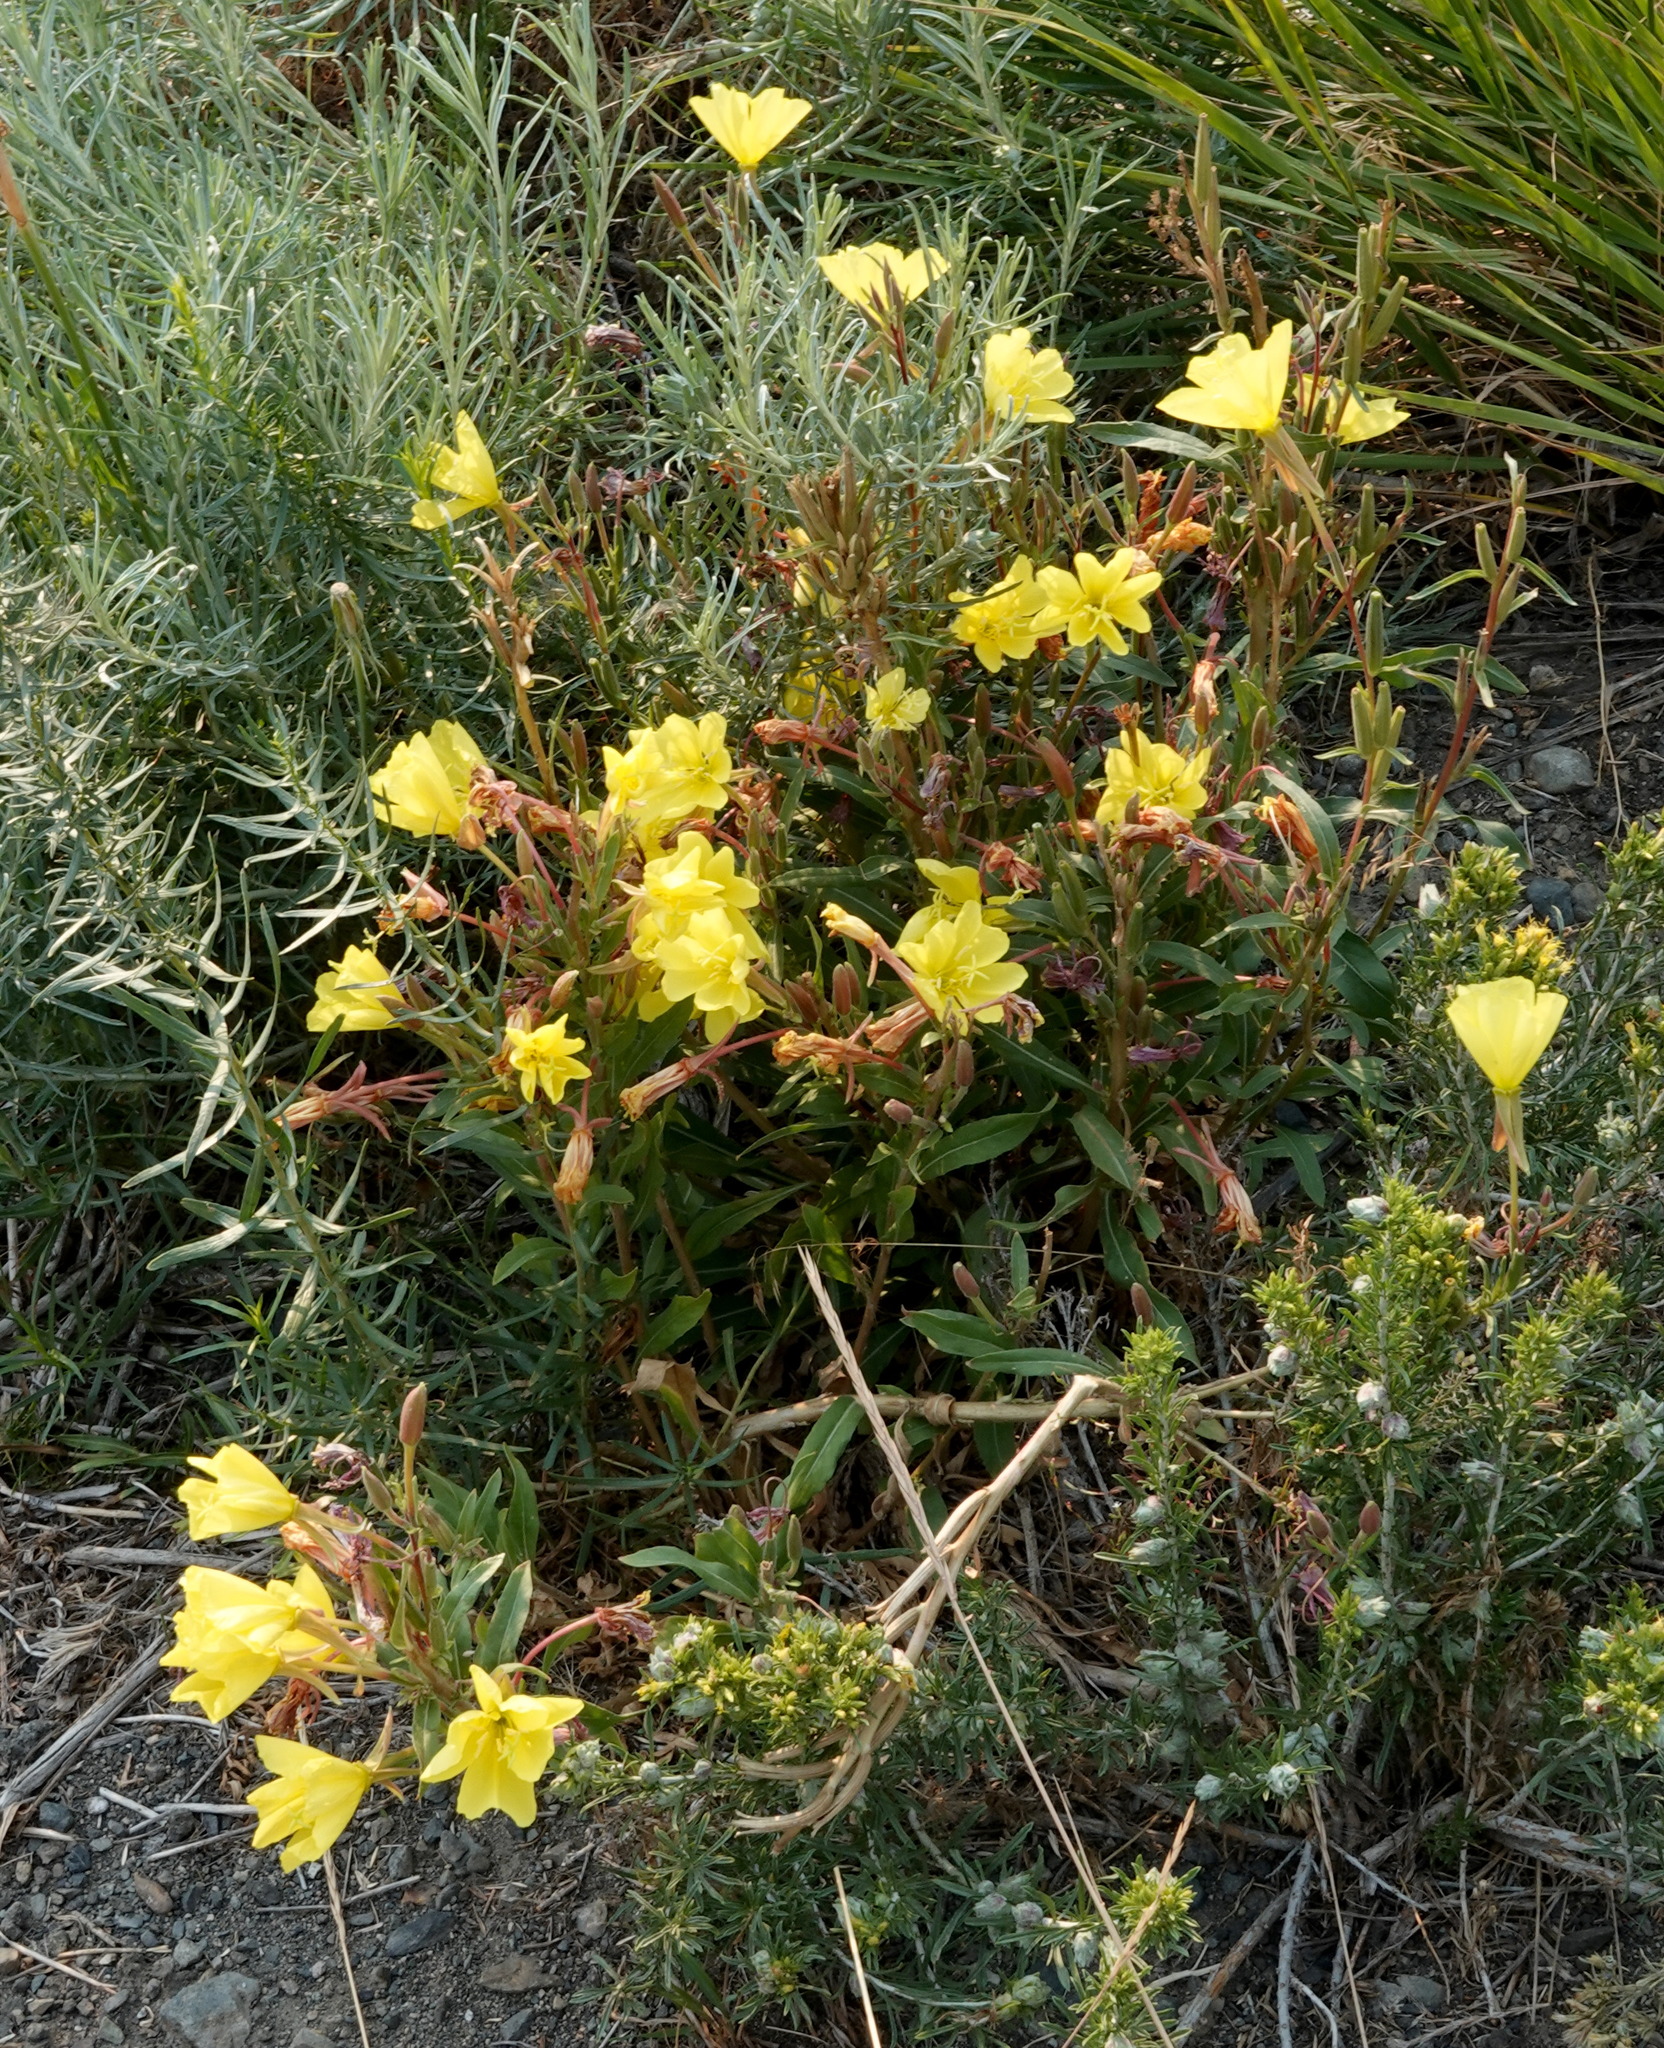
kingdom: Plantae
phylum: Tracheophyta
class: Magnoliopsida
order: Myrtales
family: Onagraceae
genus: Oenothera
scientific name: Oenothera elata
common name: Hooker's evening-primrose
